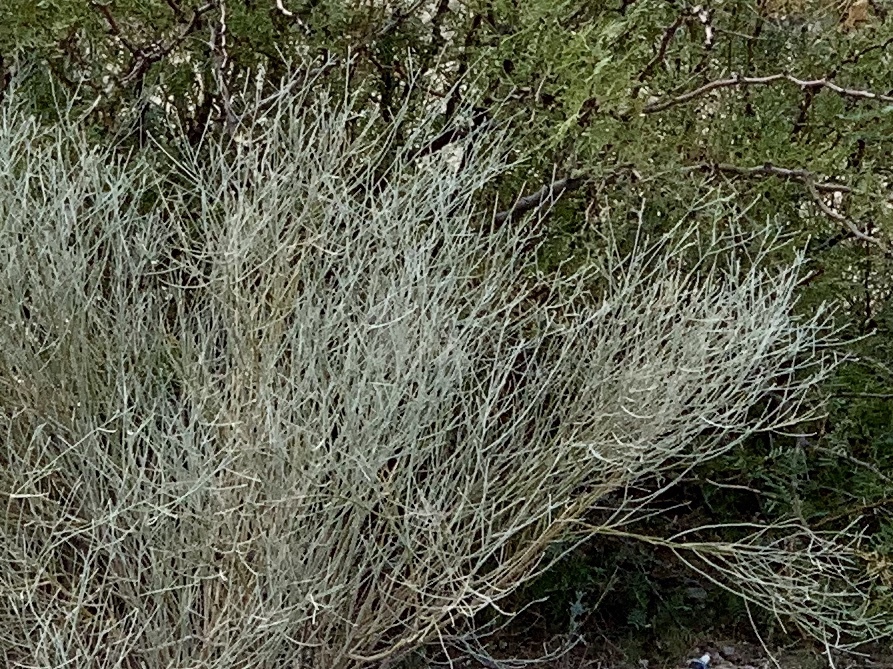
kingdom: Plantae
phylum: Tracheophyta
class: Magnoliopsida
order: Fabales
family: Fabaceae
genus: Psorothamnus
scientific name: Psorothamnus scoparius
